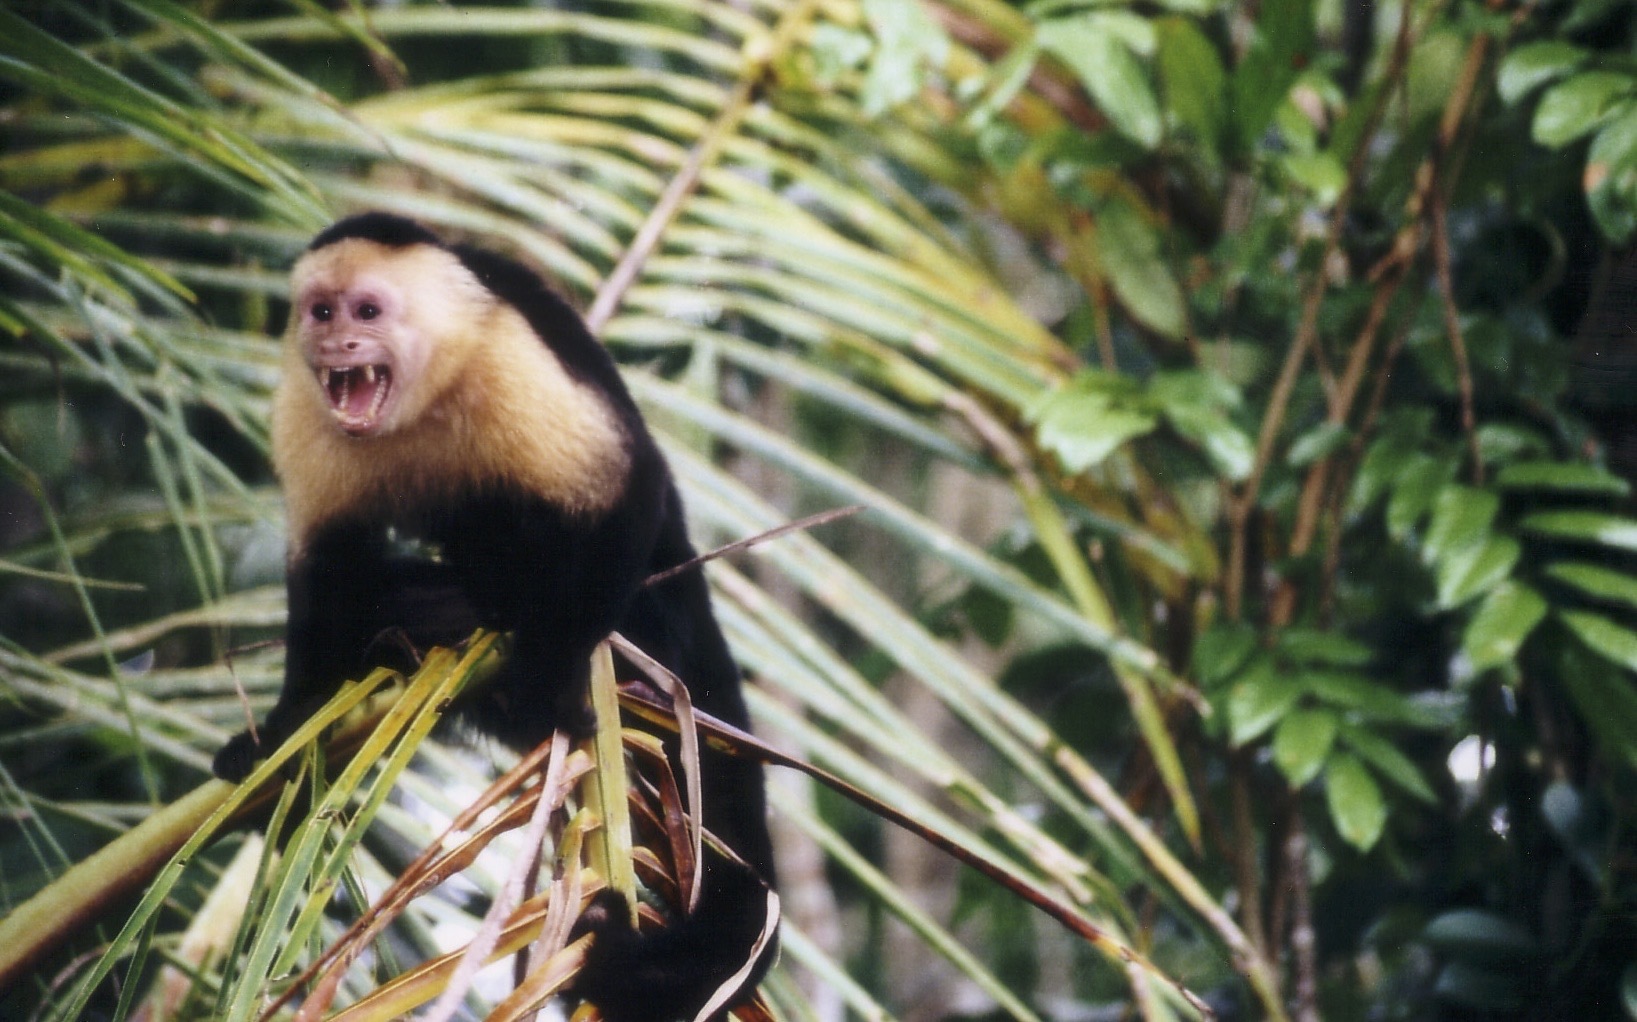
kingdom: Animalia
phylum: Chordata
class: Mammalia
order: Primates
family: Cebidae
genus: Cebus
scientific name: Cebus imitator
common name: Panamanian white-faced capuchin
